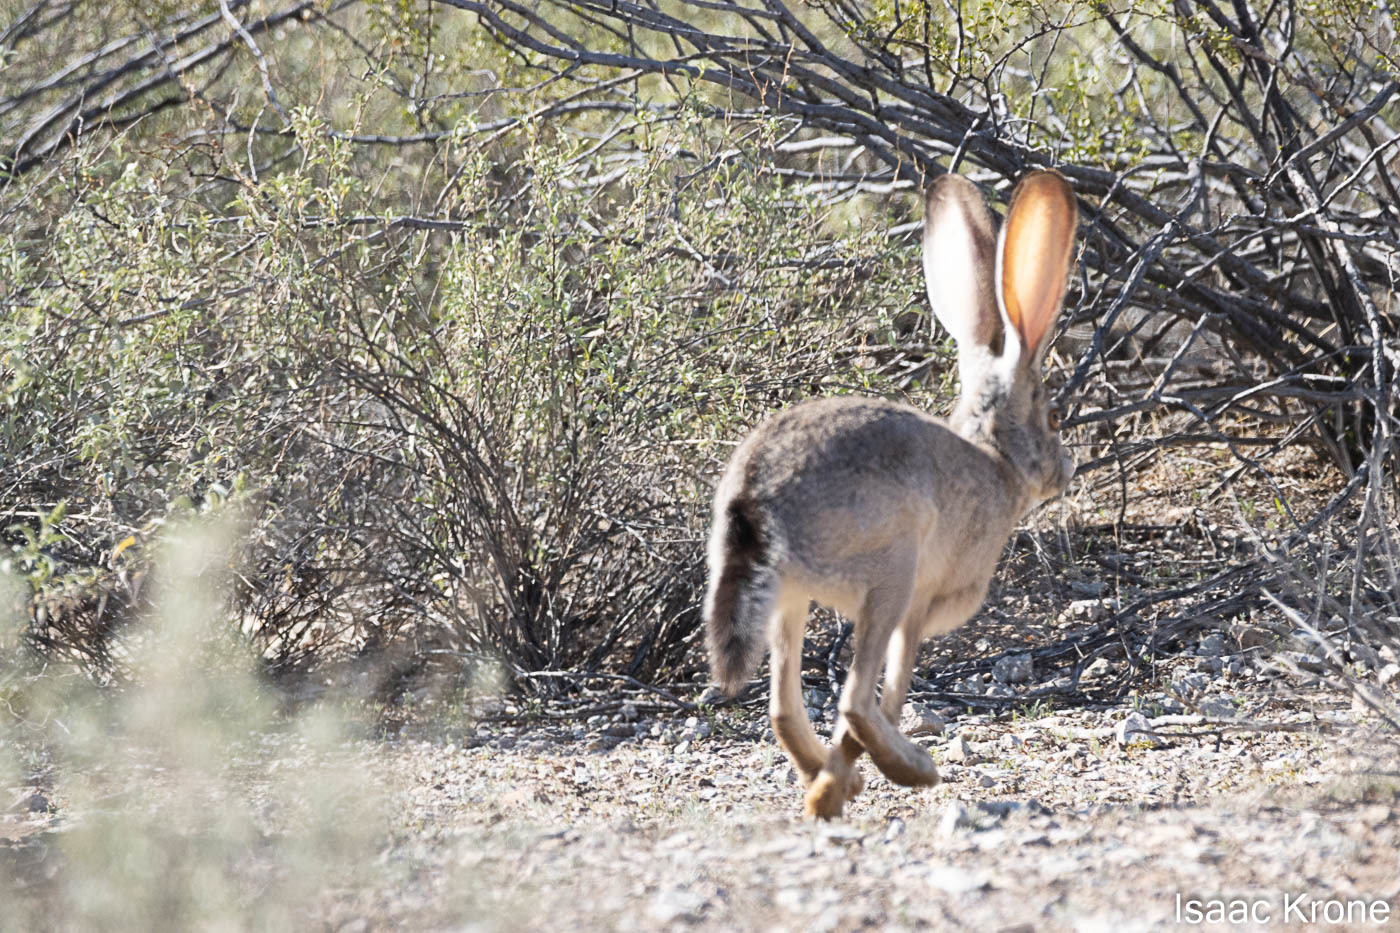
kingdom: Animalia
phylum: Chordata
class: Mammalia
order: Lagomorpha
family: Leporidae
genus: Lepus
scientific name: Lepus californicus
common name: Black-tailed jackrabbit
